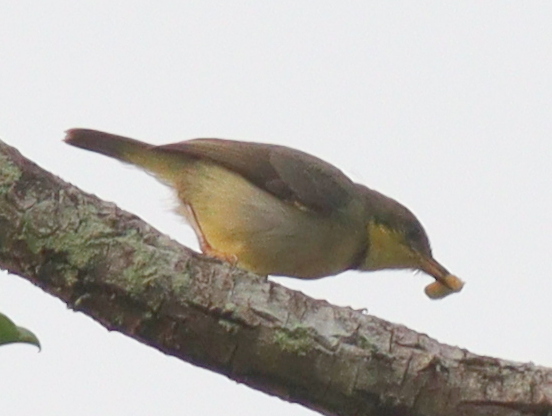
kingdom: Animalia
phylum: Chordata
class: Aves
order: Passeriformes
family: Cisticolidae
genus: Eremomela
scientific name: Eremomela badiceps
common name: Rufous-crowned eremomela
